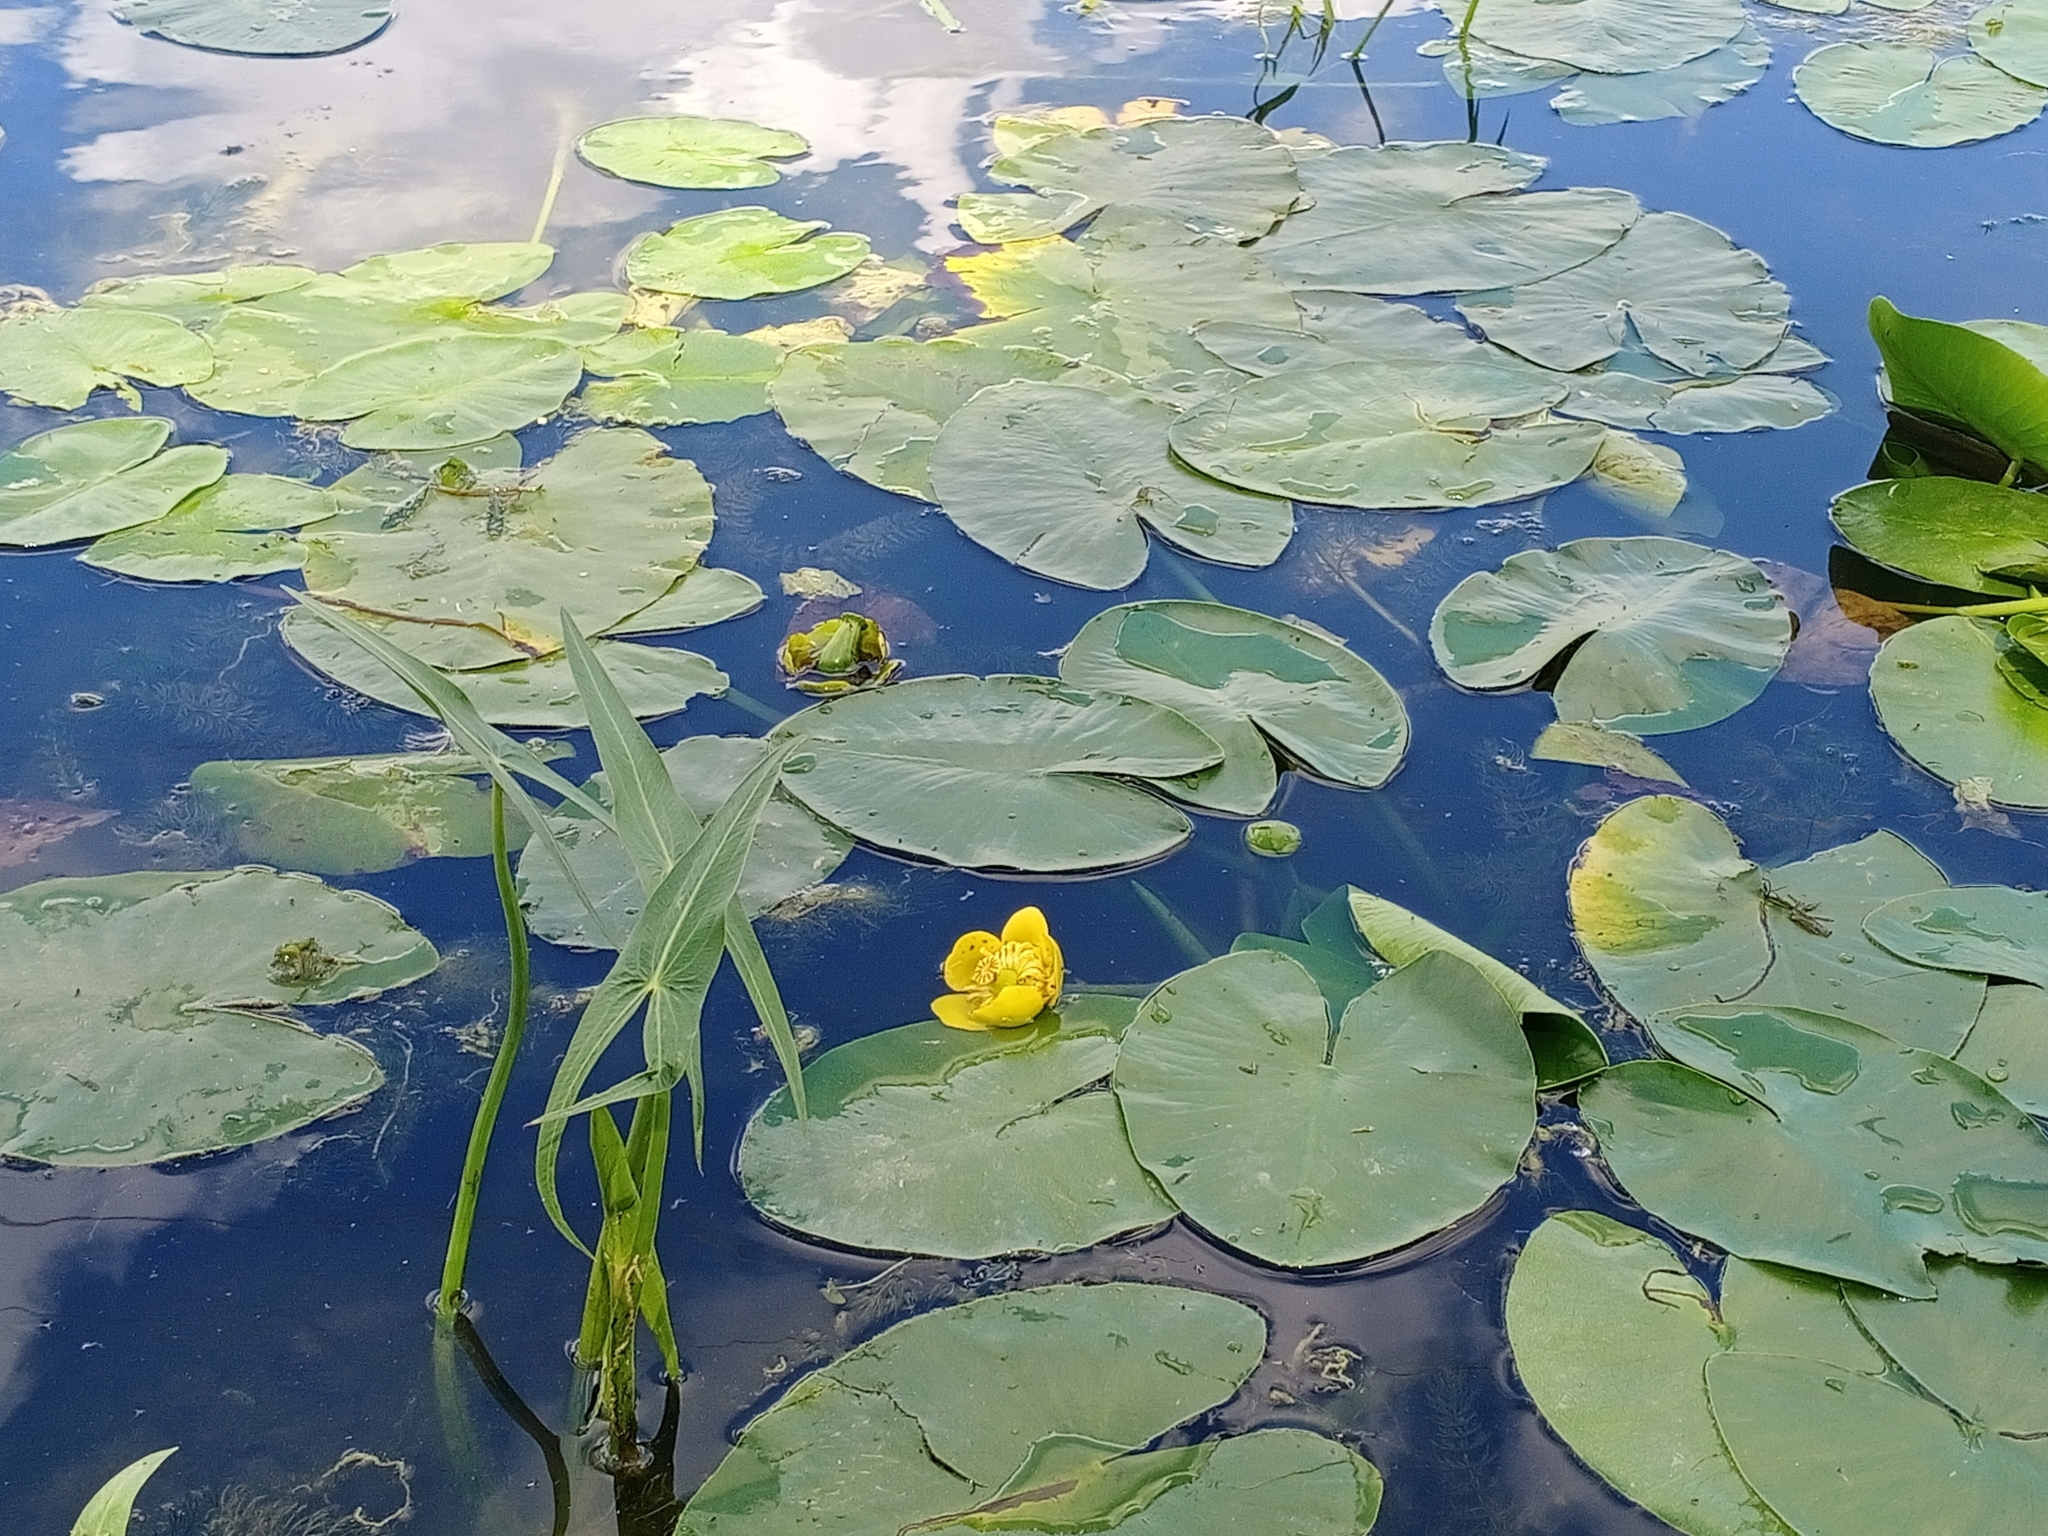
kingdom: Plantae
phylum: Tracheophyta
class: Magnoliopsida
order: Nymphaeales
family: Nymphaeaceae
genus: Nuphar
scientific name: Nuphar lutea
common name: Yellow water-lily
